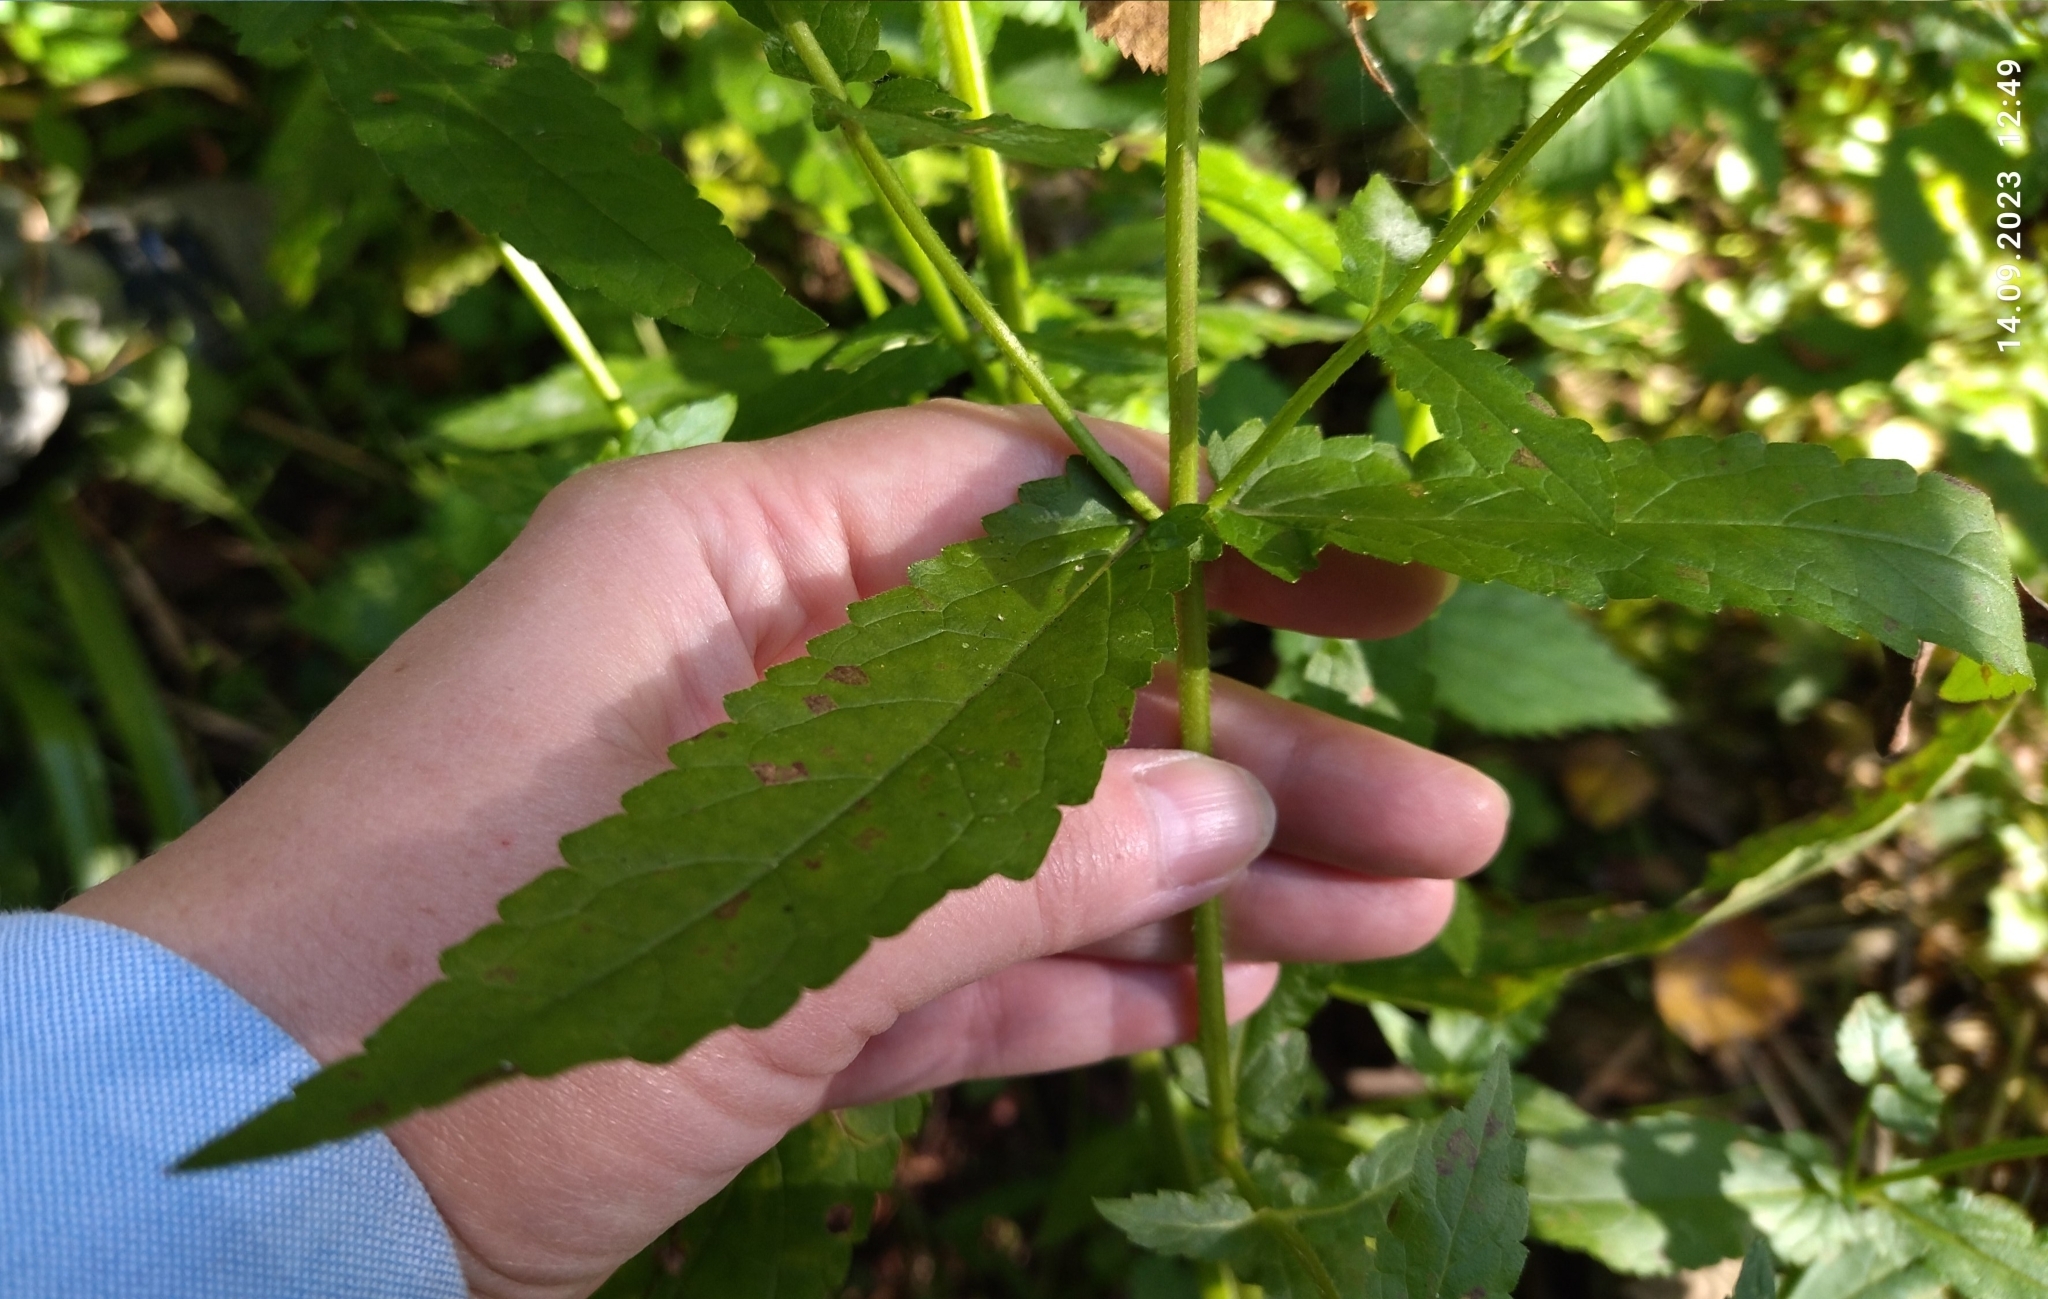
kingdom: Plantae
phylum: Tracheophyta
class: Magnoliopsida
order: Lamiales
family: Lamiaceae
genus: Stachys
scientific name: Stachys palustris
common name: Marsh woundwort
